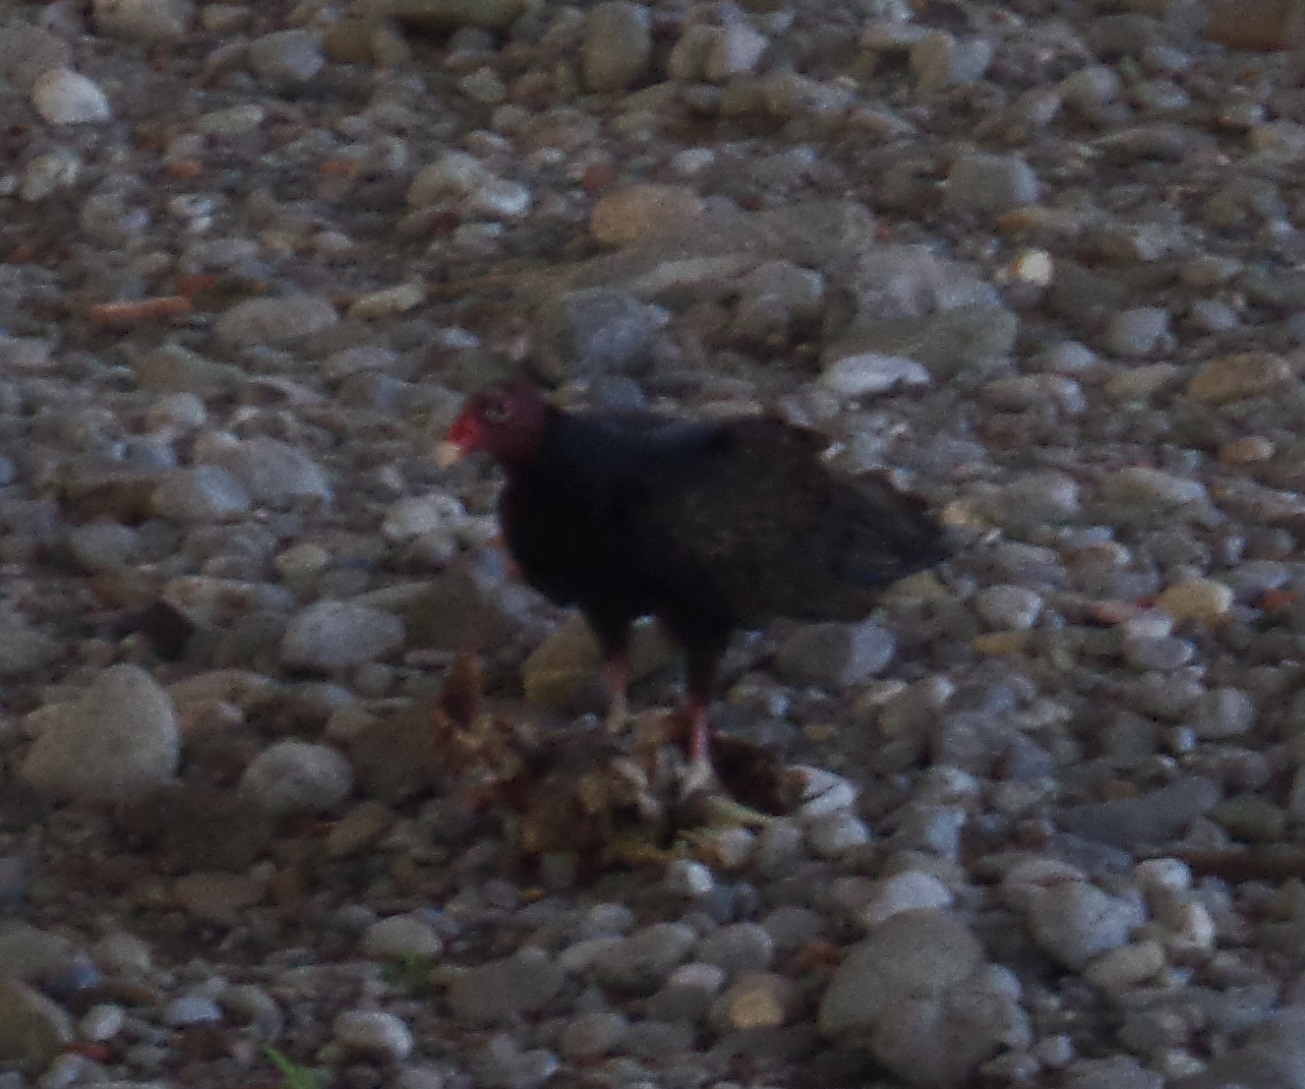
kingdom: Animalia
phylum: Chordata
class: Aves
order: Accipitriformes
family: Cathartidae
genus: Cathartes
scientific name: Cathartes aura
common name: Turkey vulture
